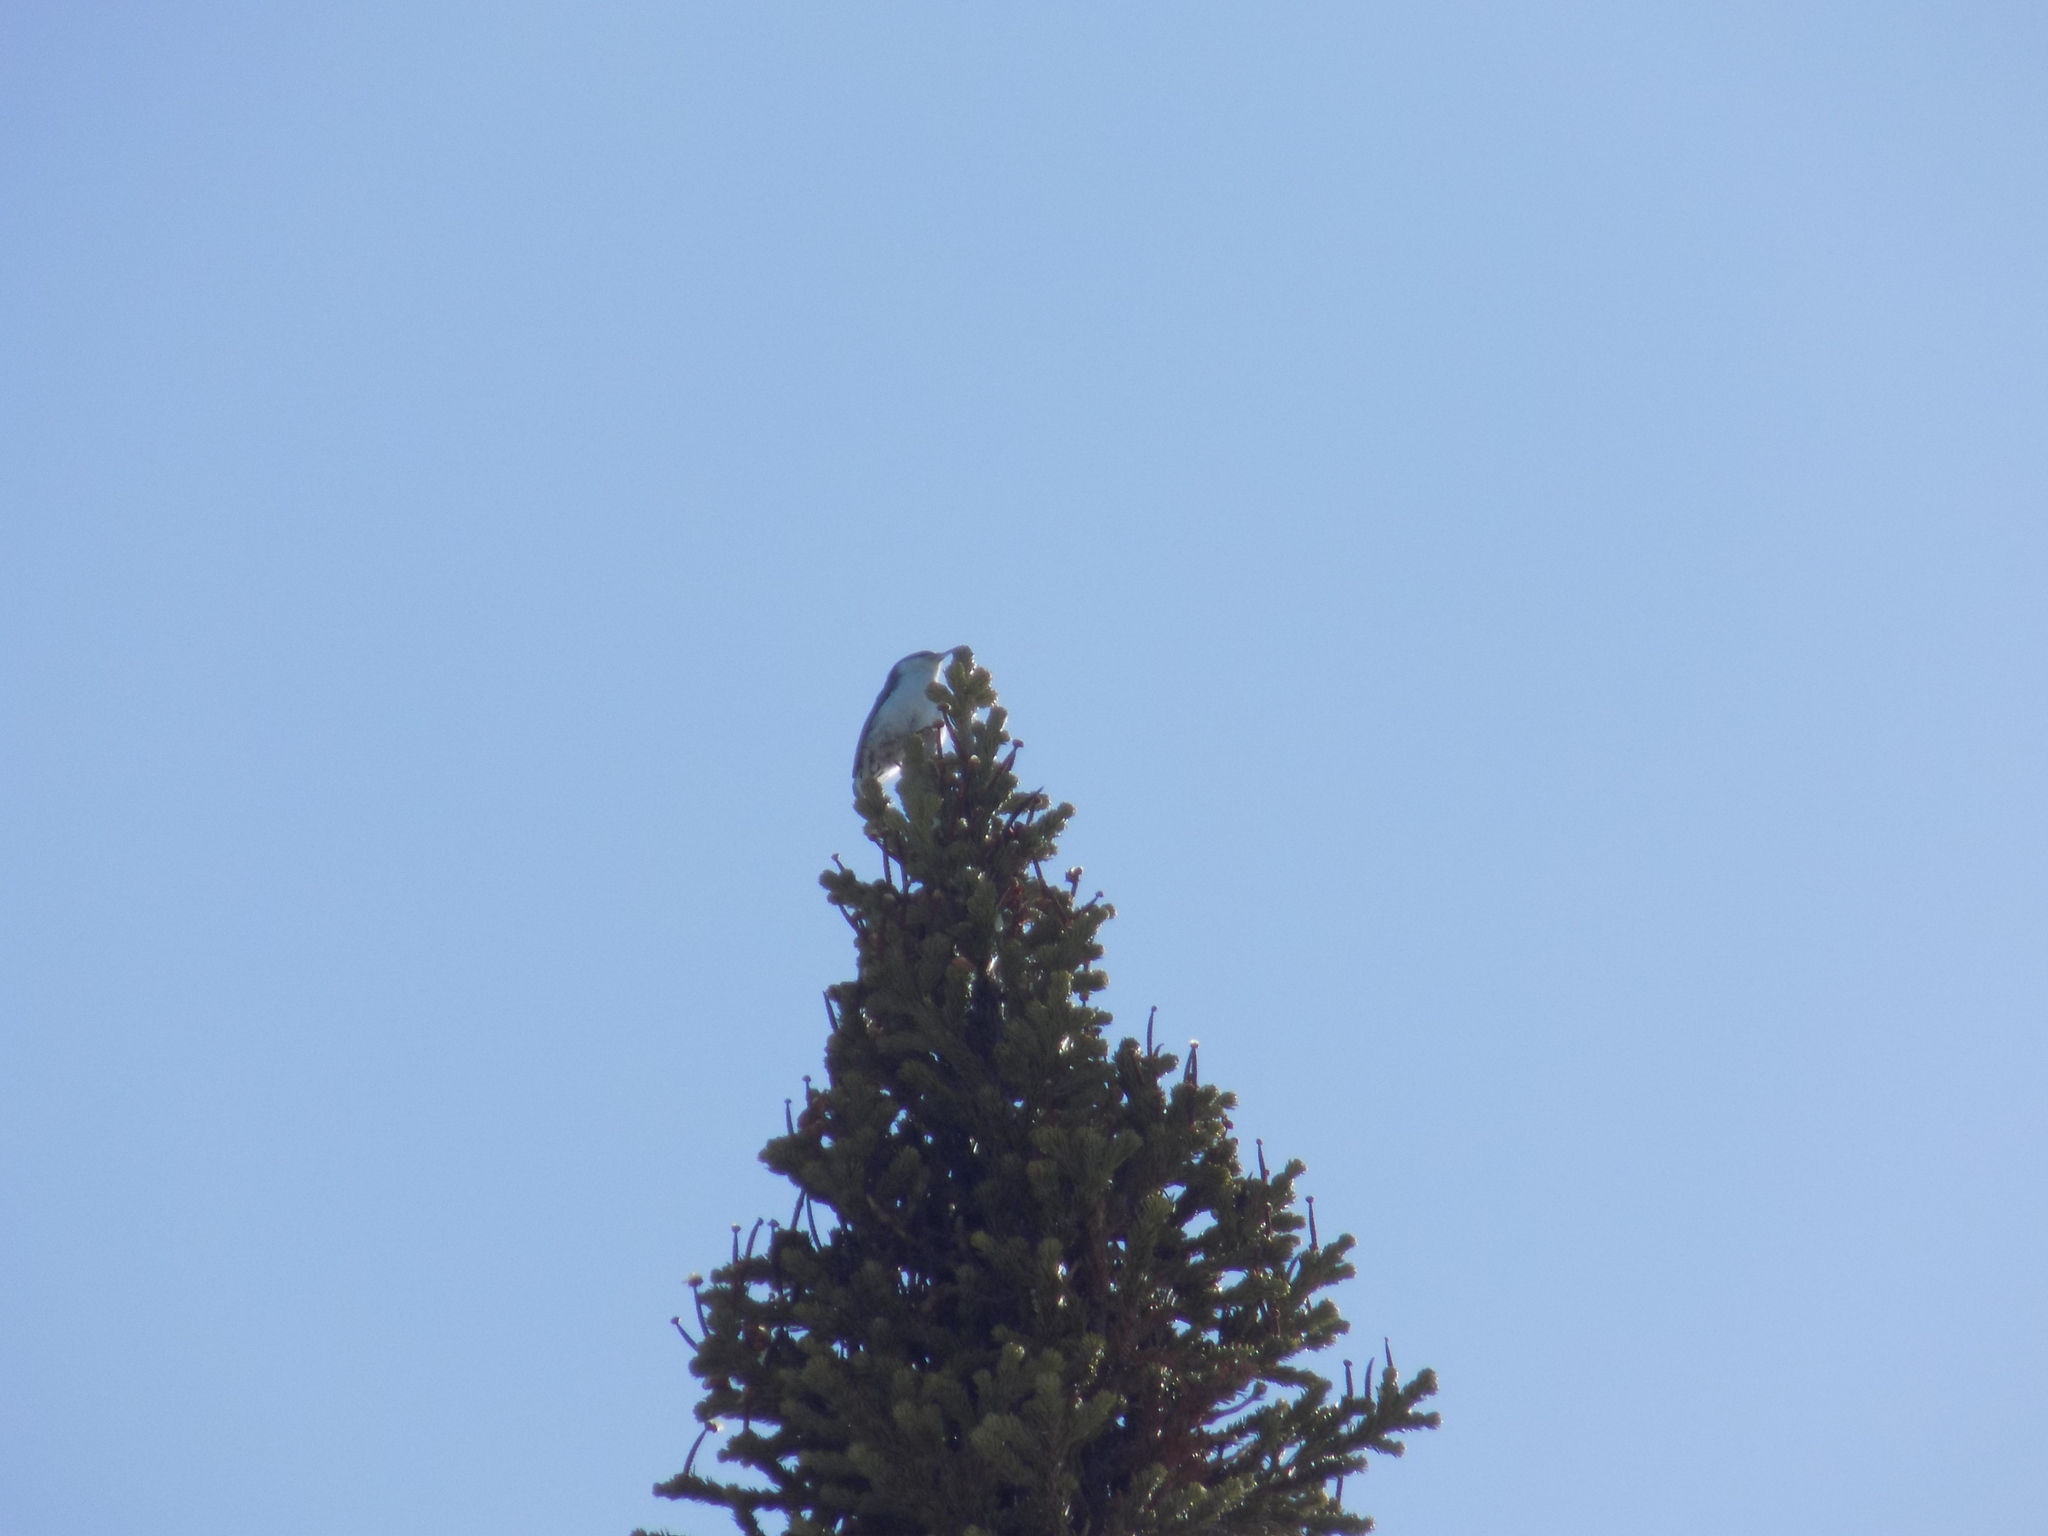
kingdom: Animalia
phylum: Chordata
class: Aves
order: Passeriformes
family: Sittidae
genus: Sitta
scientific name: Sitta europaea
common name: Eurasian nuthatch
